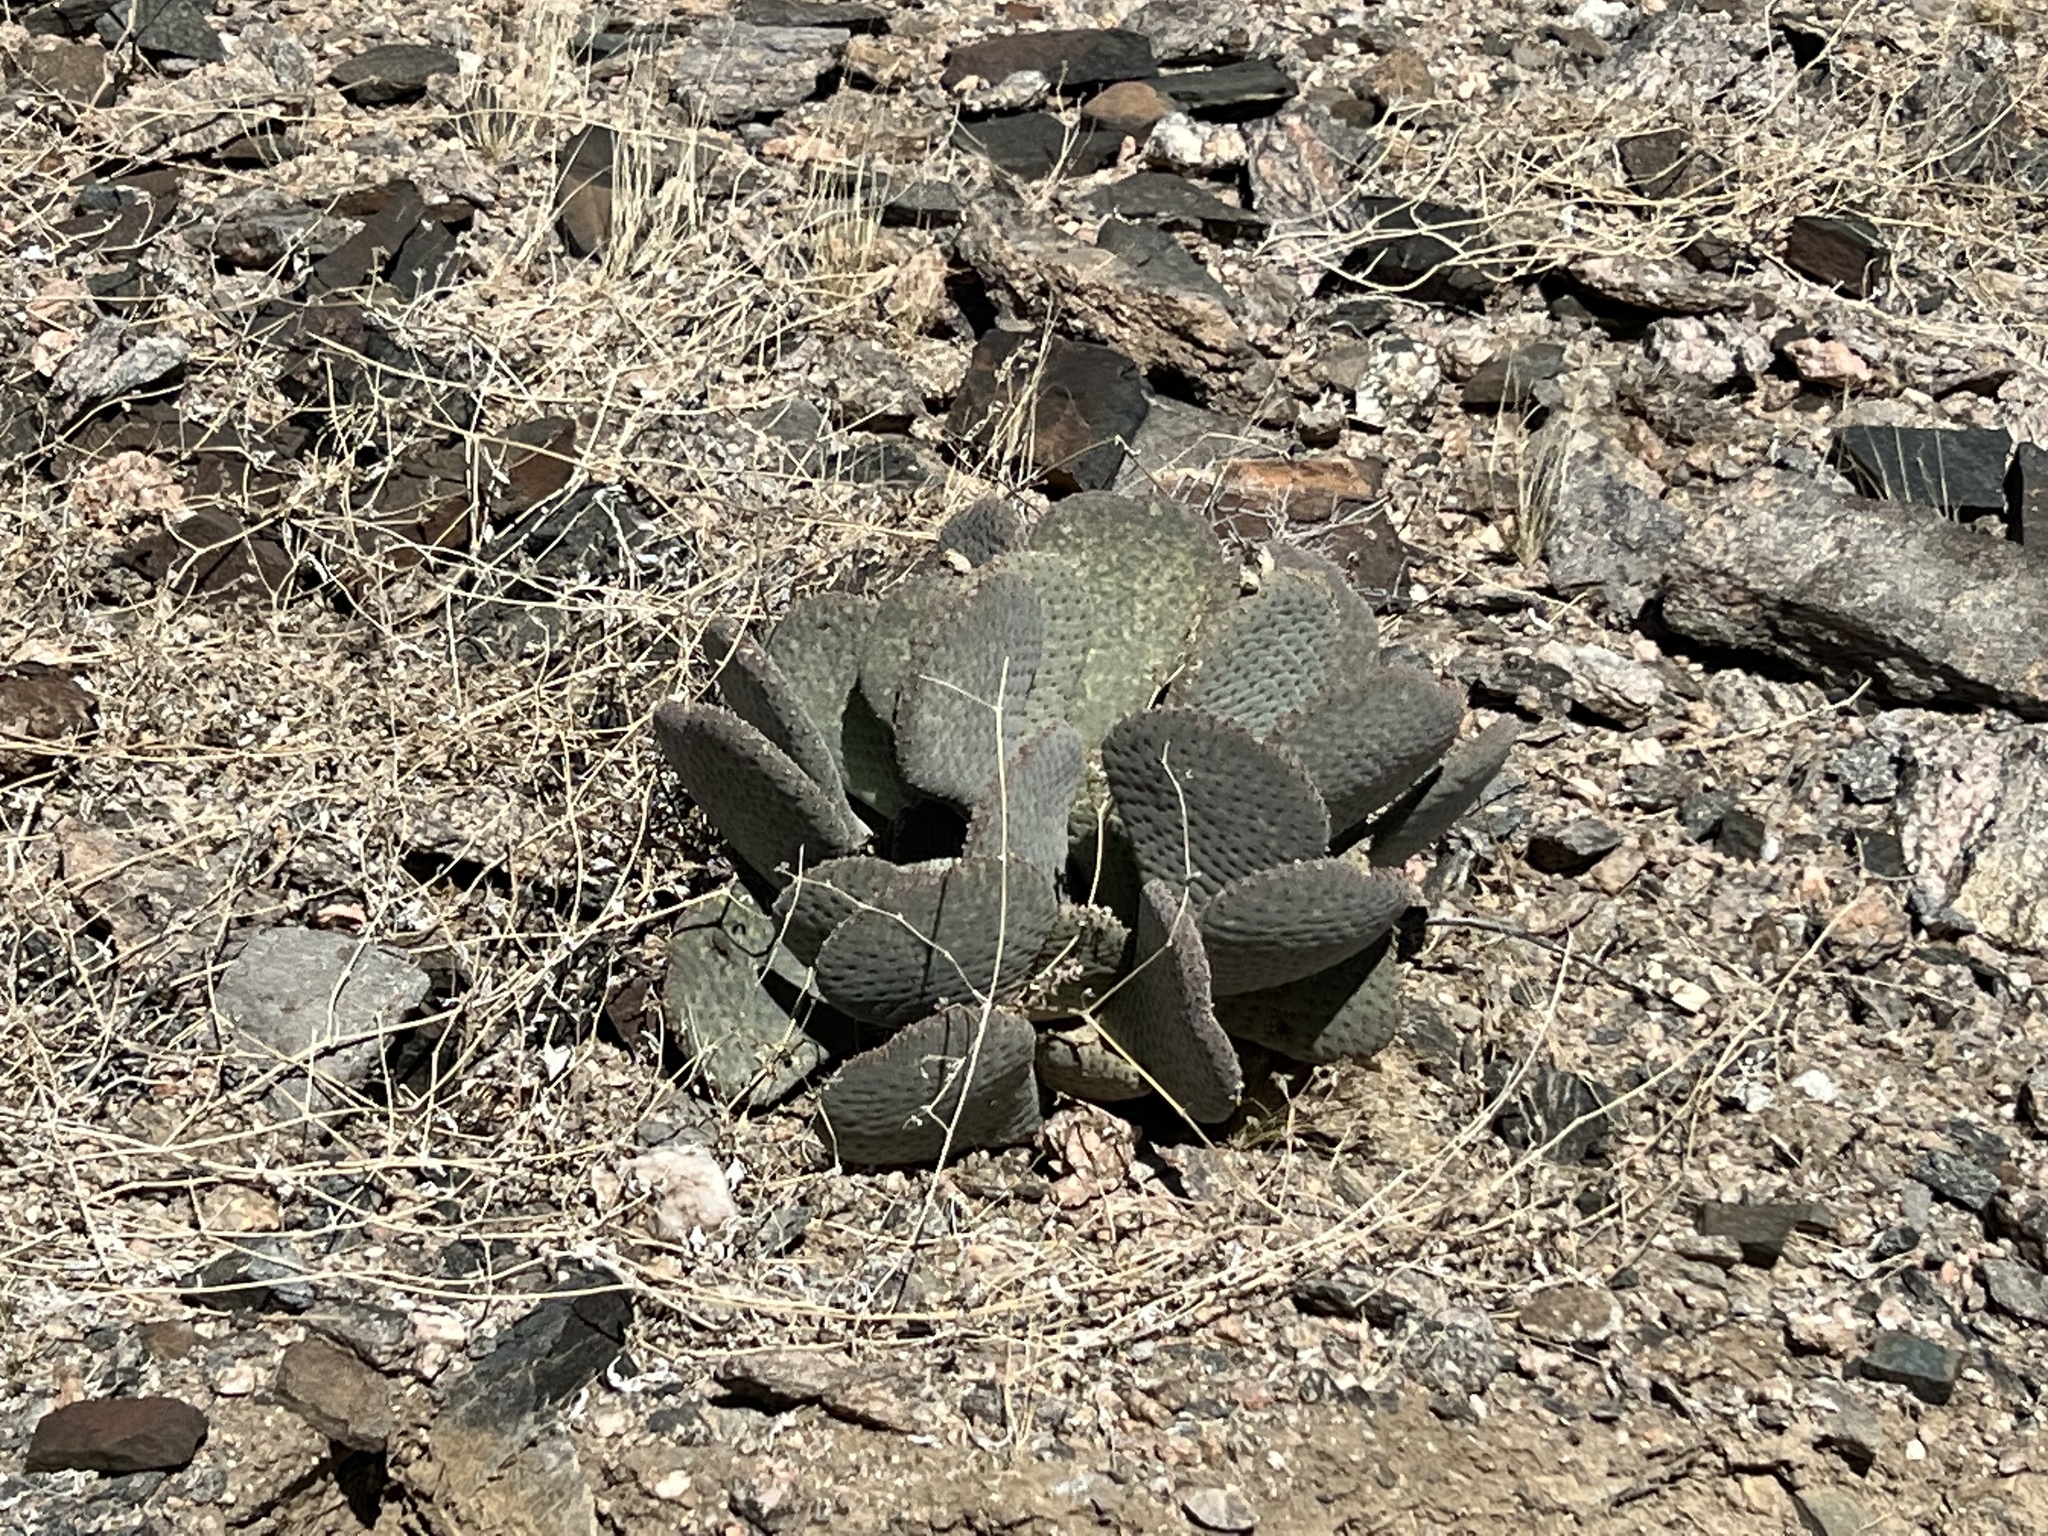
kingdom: Plantae
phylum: Tracheophyta
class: Magnoliopsida
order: Caryophyllales
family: Cactaceae
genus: Opuntia
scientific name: Opuntia basilaris
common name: Beavertail prickly-pear
